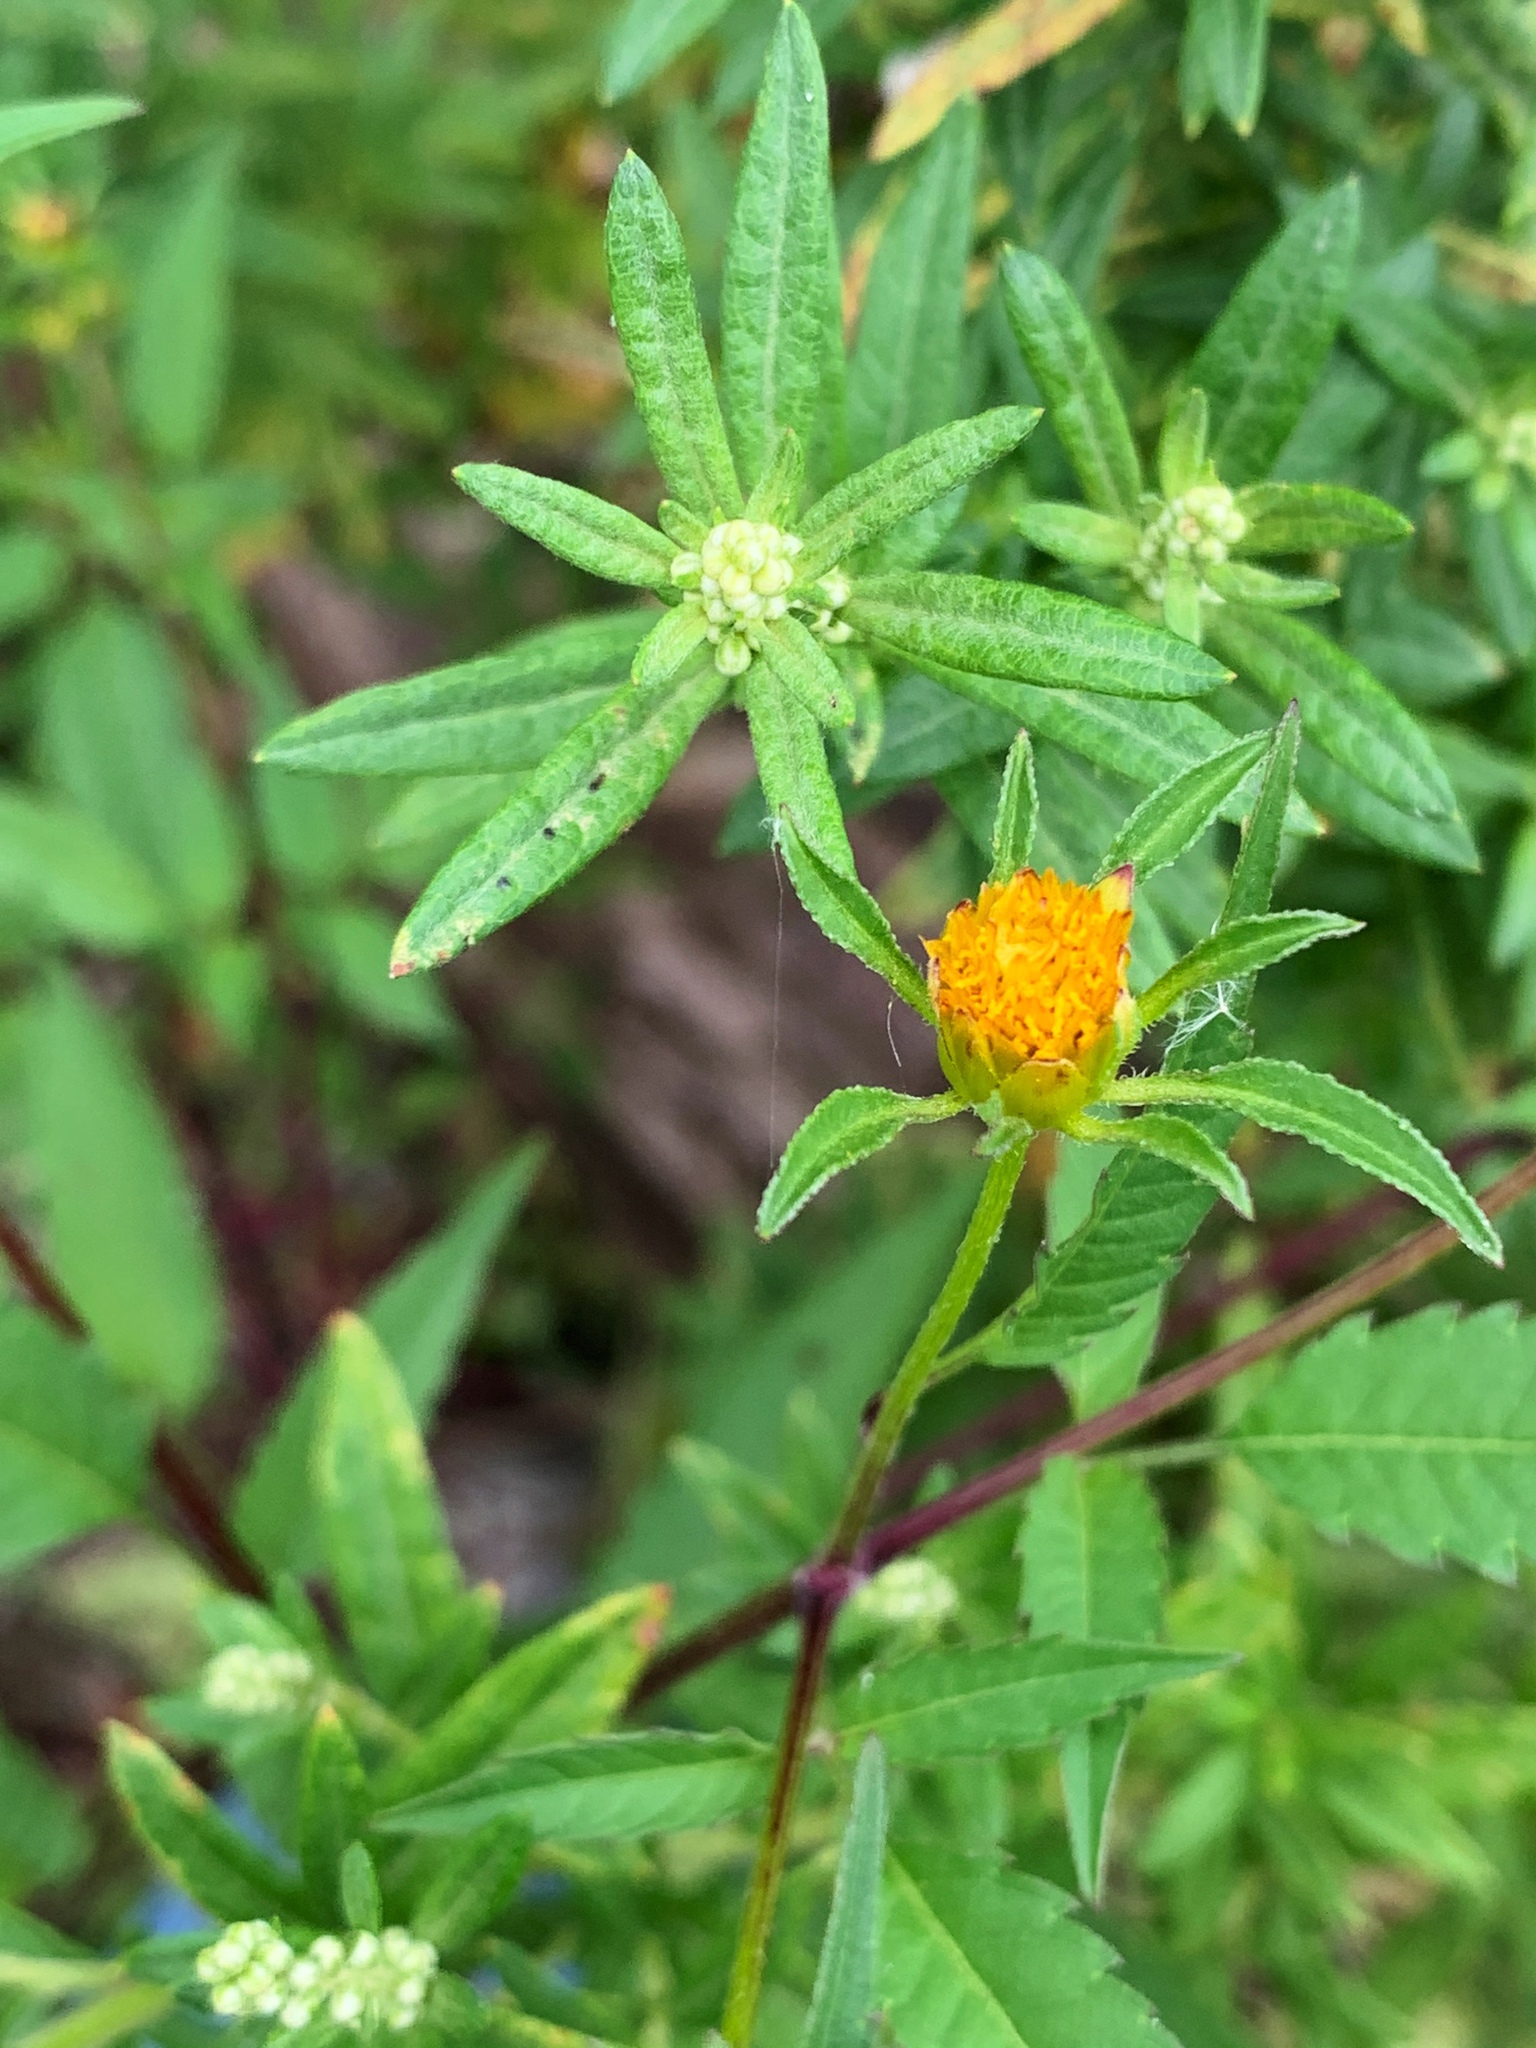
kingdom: Plantae
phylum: Tracheophyta
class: Magnoliopsida
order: Asterales
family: Asteraceae
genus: Bidens
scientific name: Bidens frondosa
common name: Beggarticks
